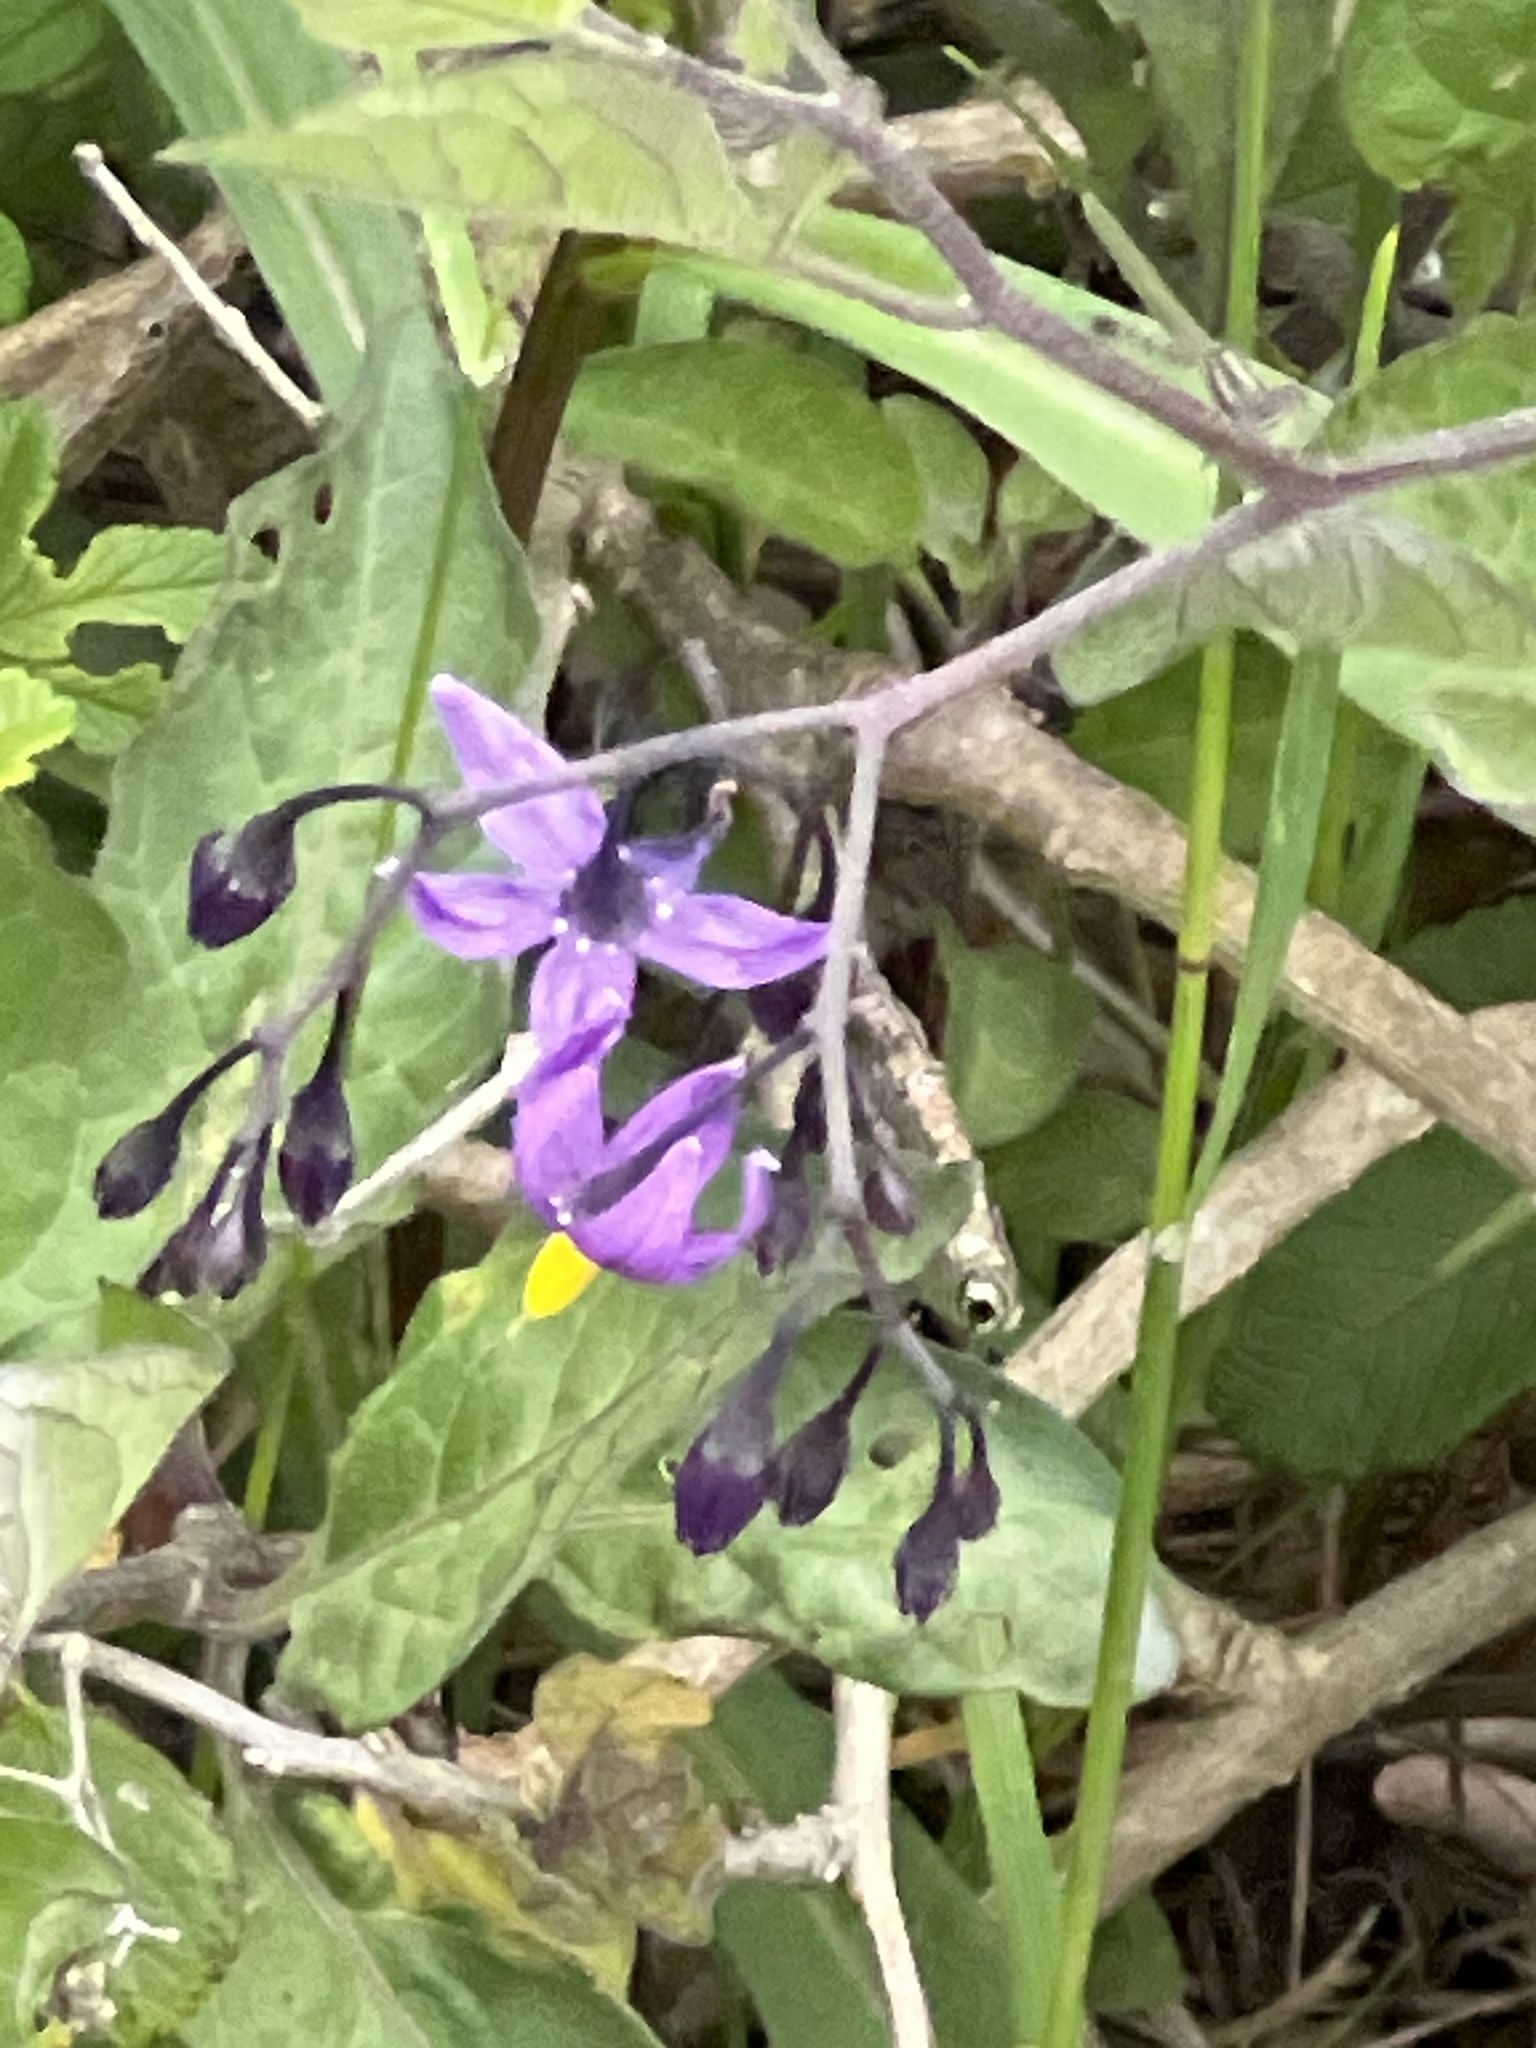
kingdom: Plantae
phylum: Tracheophyta
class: Magnoliopsida
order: Solanales
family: Solanaceae
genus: Solanum
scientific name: Solanum dulcamara
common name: Climbing nightshade
